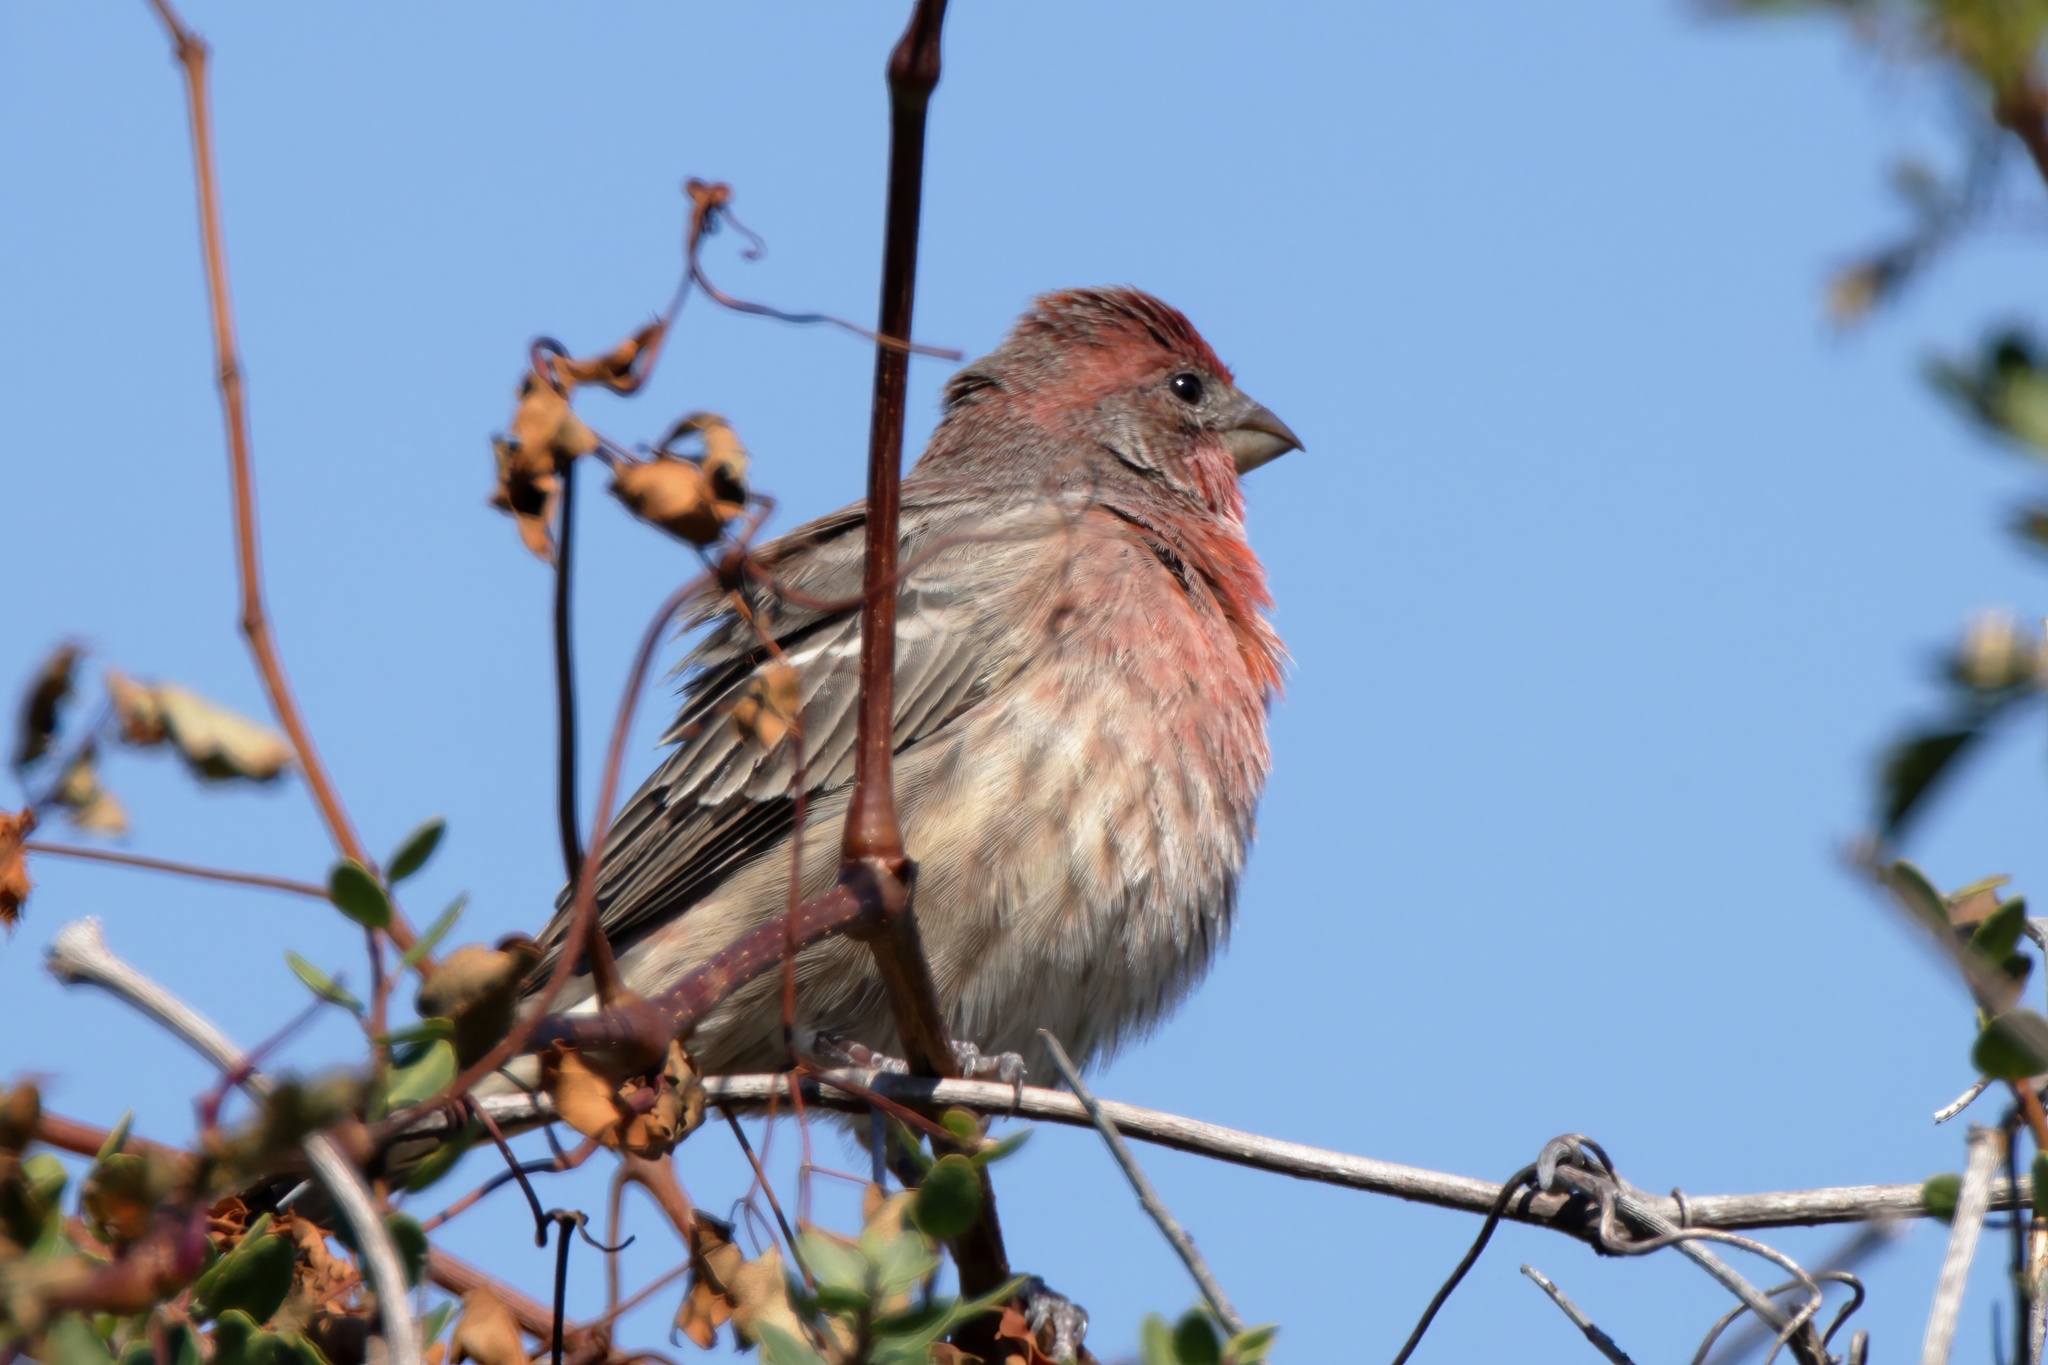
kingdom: Animalia
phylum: Chordata
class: Aves
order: Passeriformes
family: Fringillidae
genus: Haemorhous
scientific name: Haemorhous mexicanus
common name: House finch
